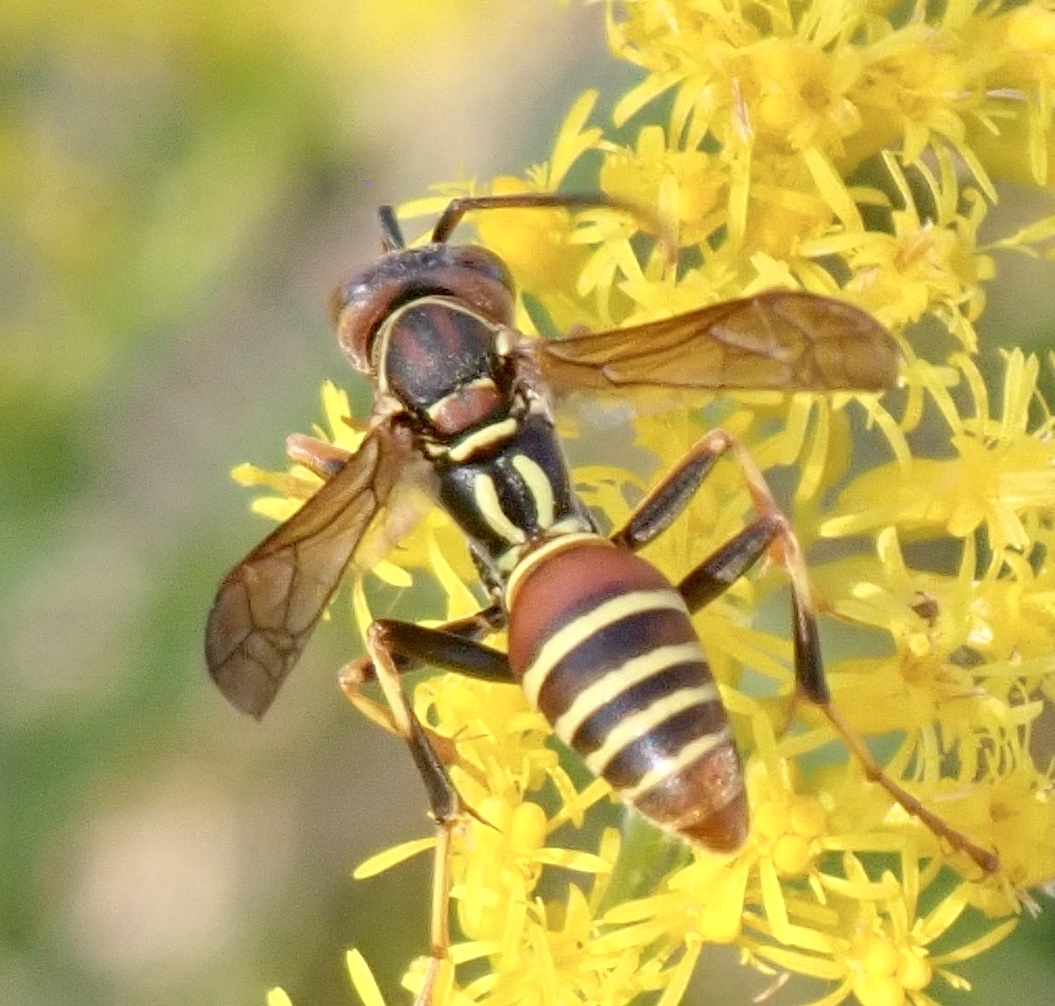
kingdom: Animalia
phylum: Arthropoda
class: Insecta
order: Hymenoptera
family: Eumenidae
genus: Polistes
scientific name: Polistes dorsalis
